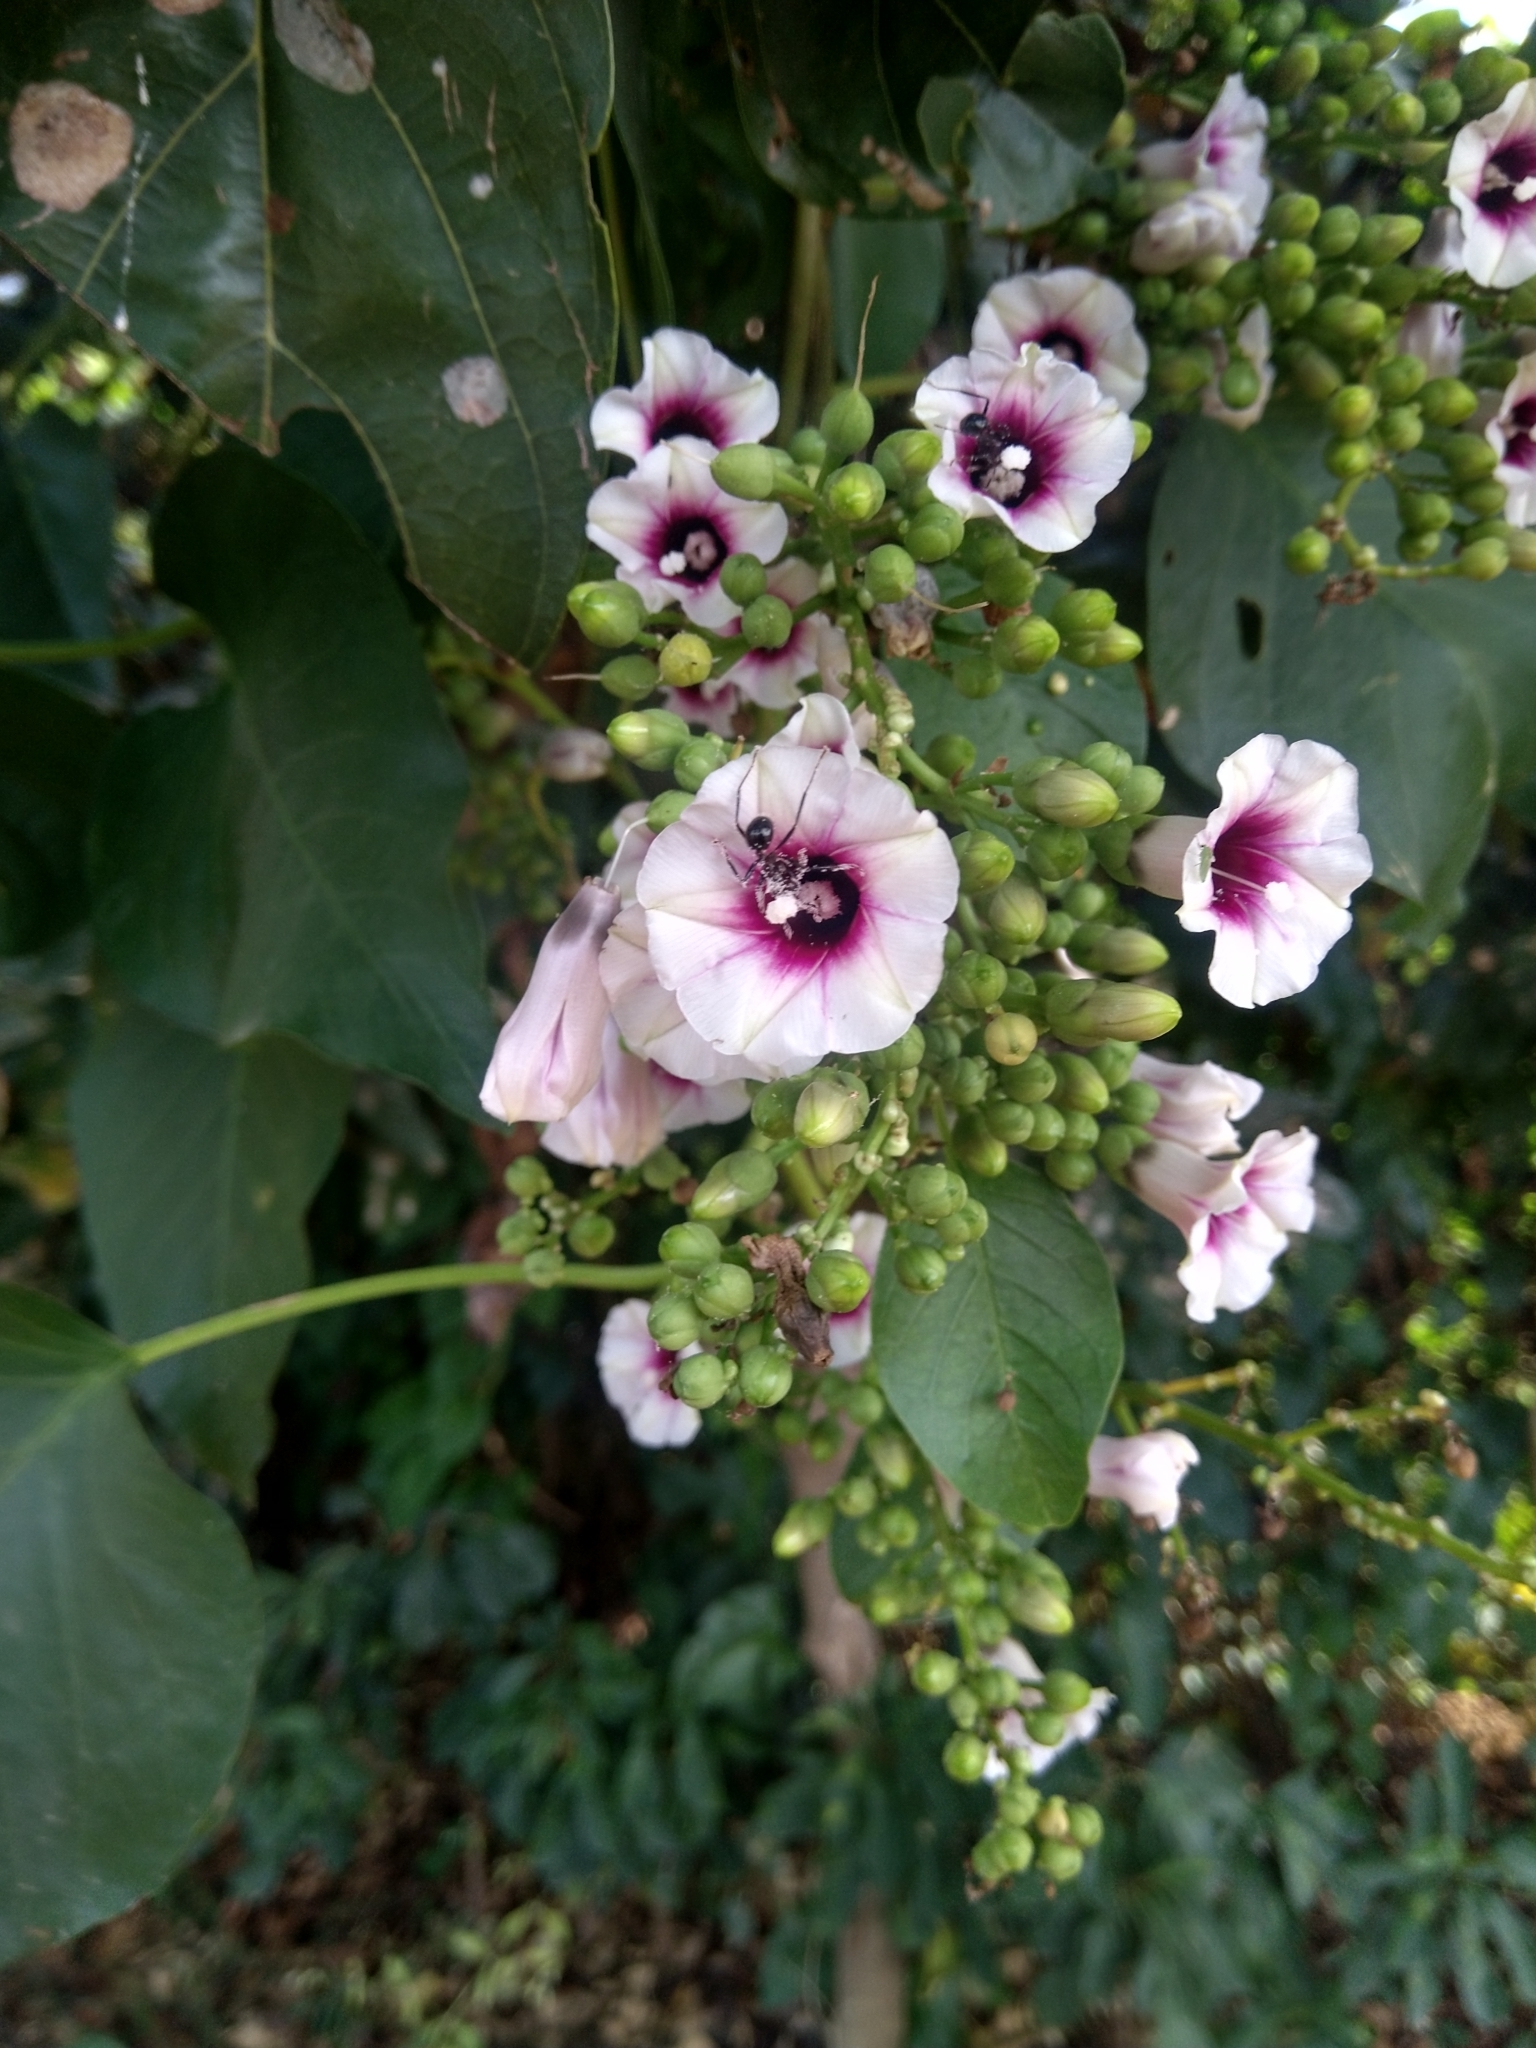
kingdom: Plantae
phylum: Tracheophyta
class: Magnoliopsida
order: Solanales
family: Convolvulaceae
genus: Ipomoea
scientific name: Ipomoea staphylina
